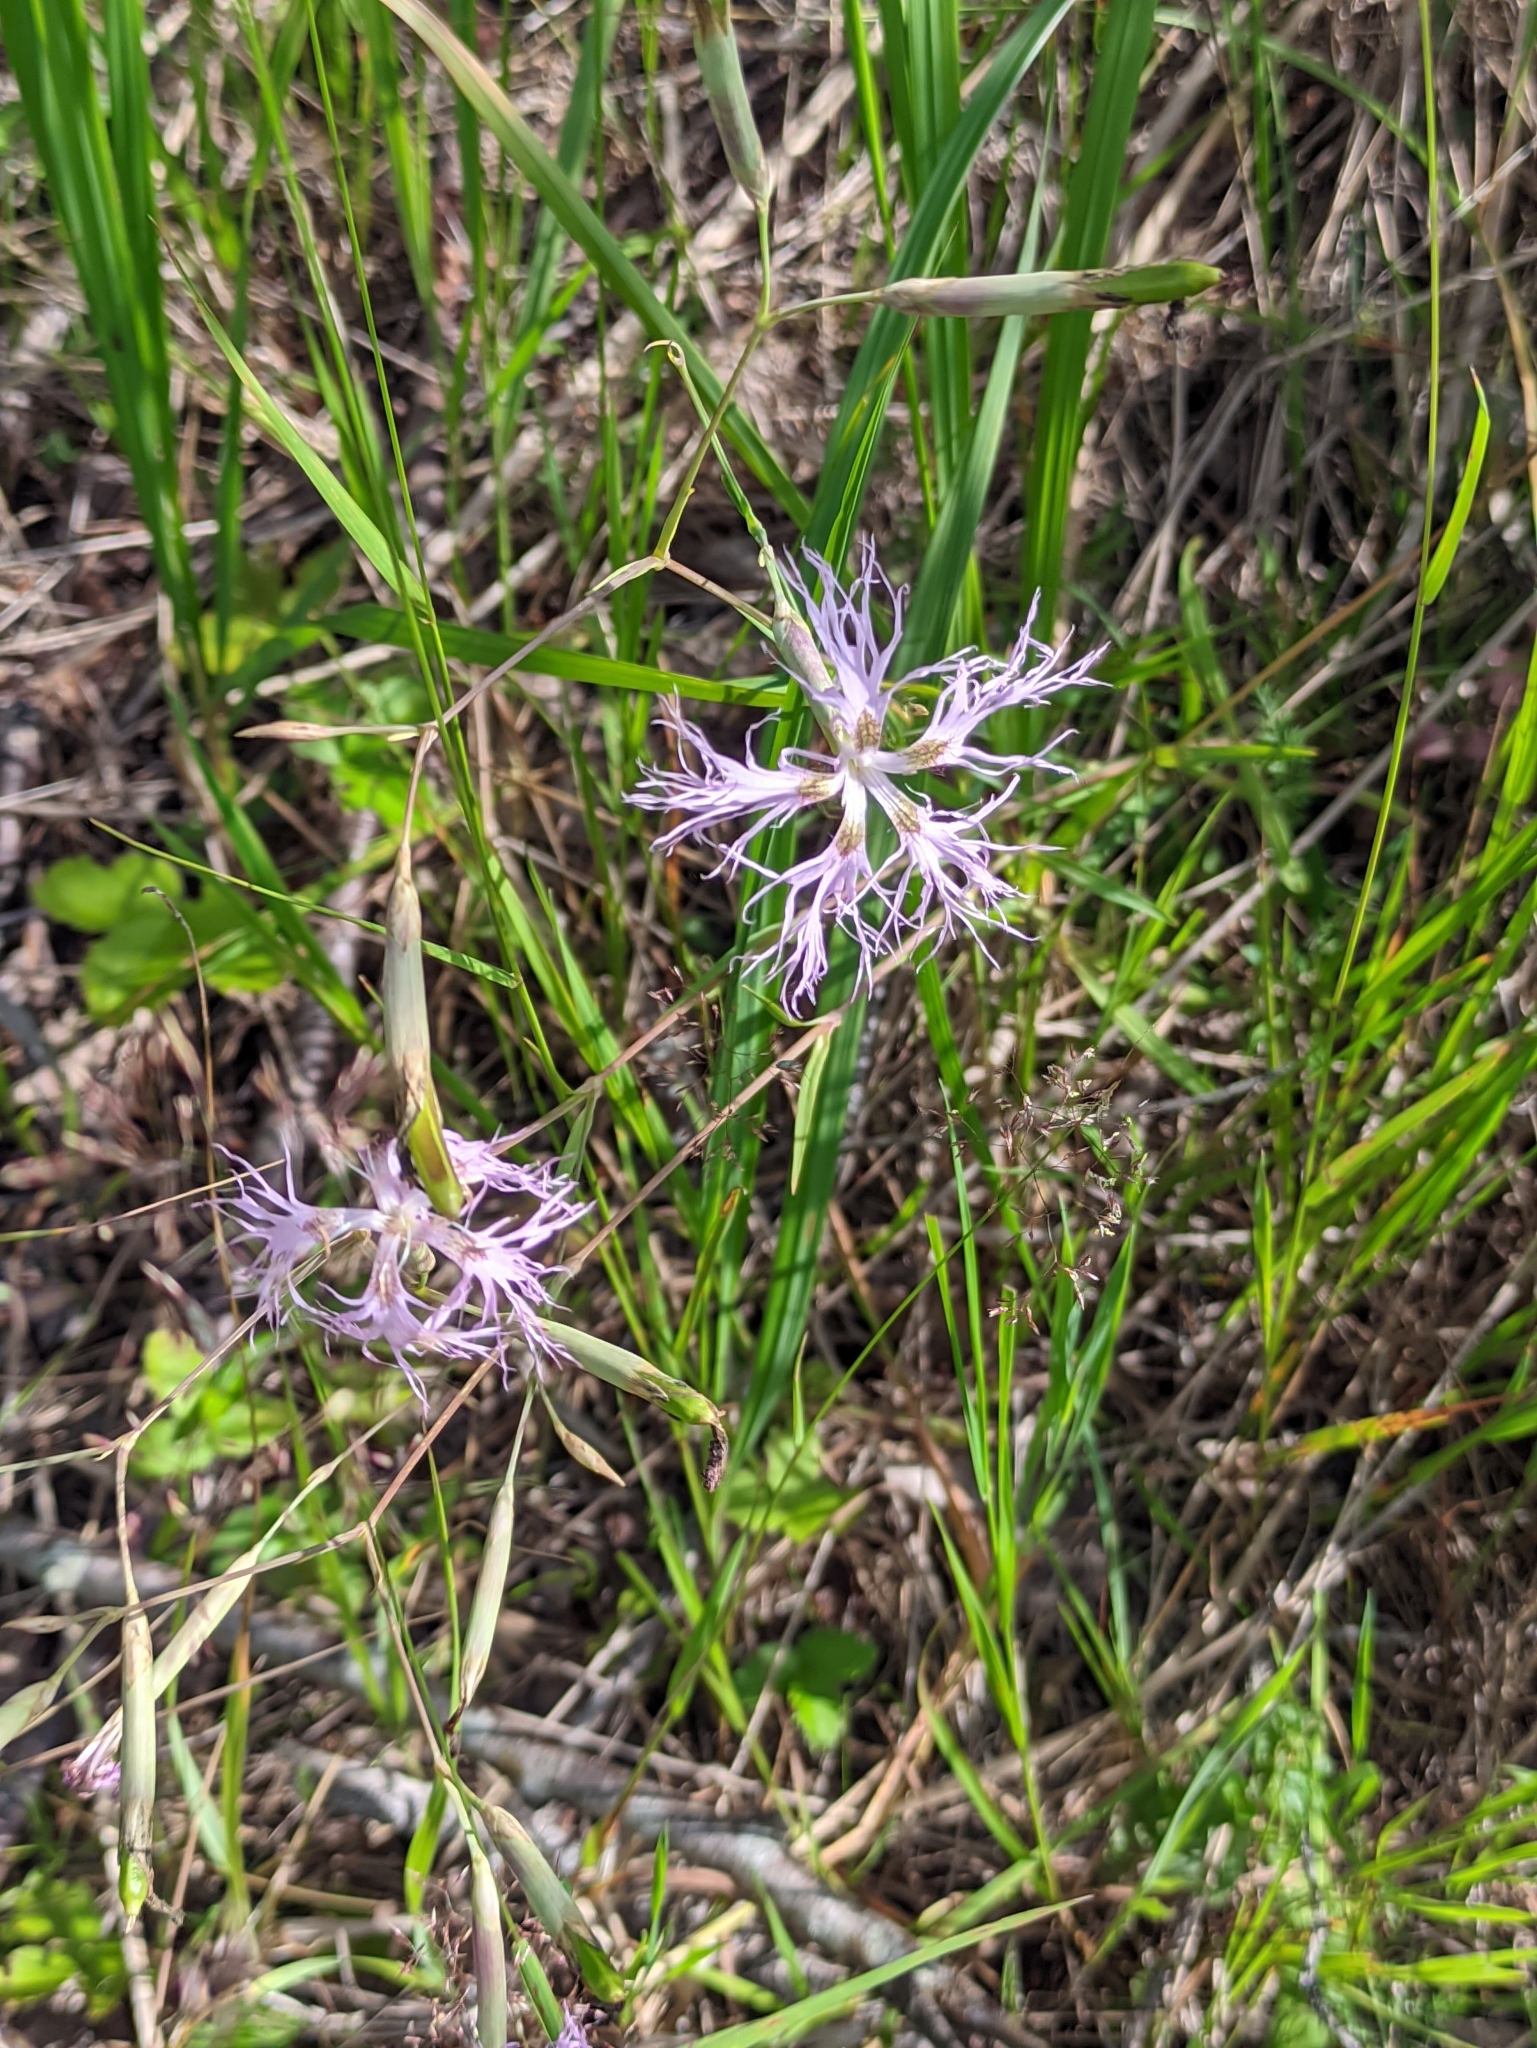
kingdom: Plantae
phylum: Tracheophyta
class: Magnoliopsida
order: Caryophyllales
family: Caryophyllaceae
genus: Dianthus
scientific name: Dianthus superbus
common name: Fringed pink
